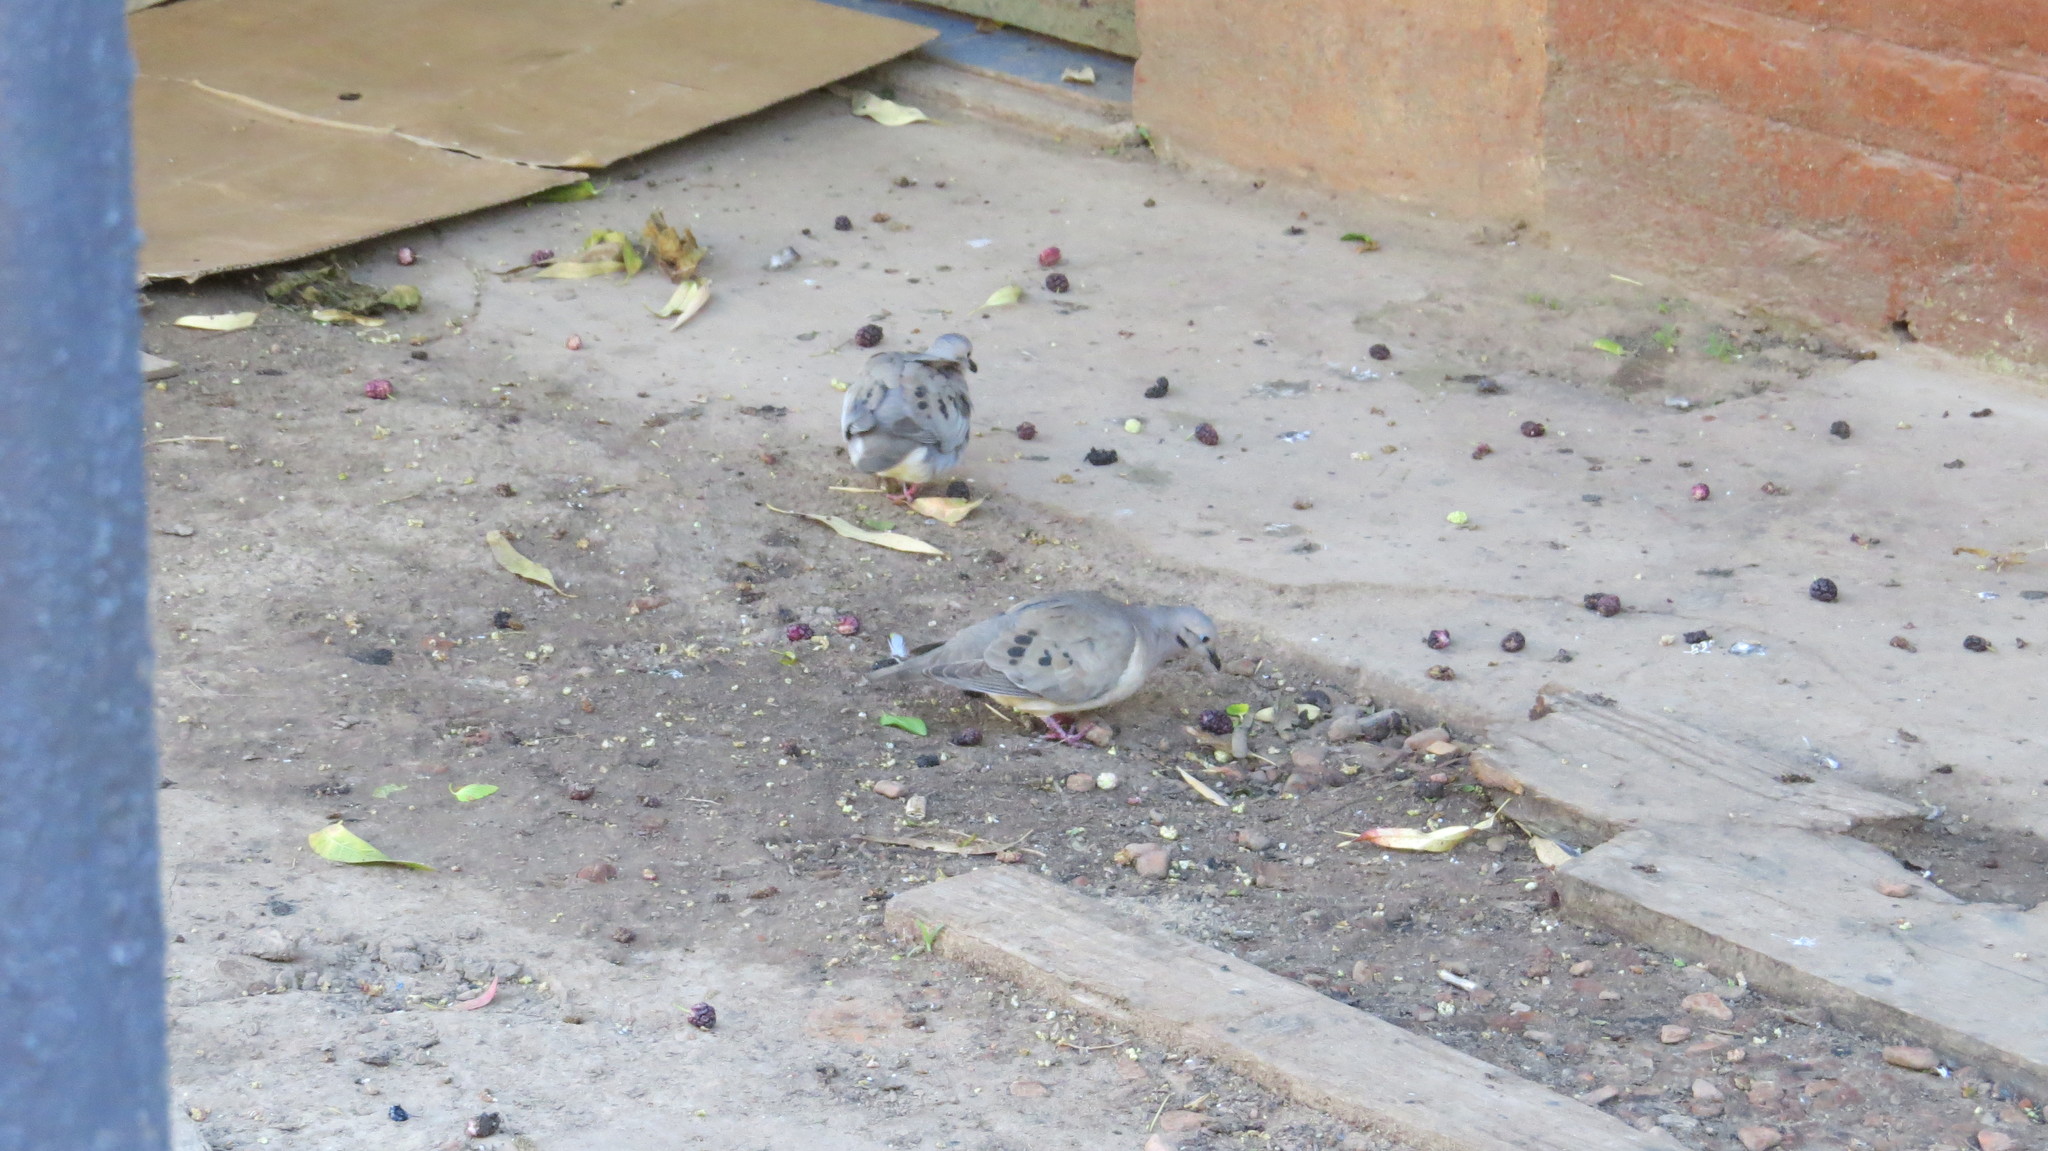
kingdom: Animalia
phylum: Chordata
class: Aves
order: Columbiformes
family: Columbidae
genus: Zenaida
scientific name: Zenaida auriculata
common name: Eared dove
